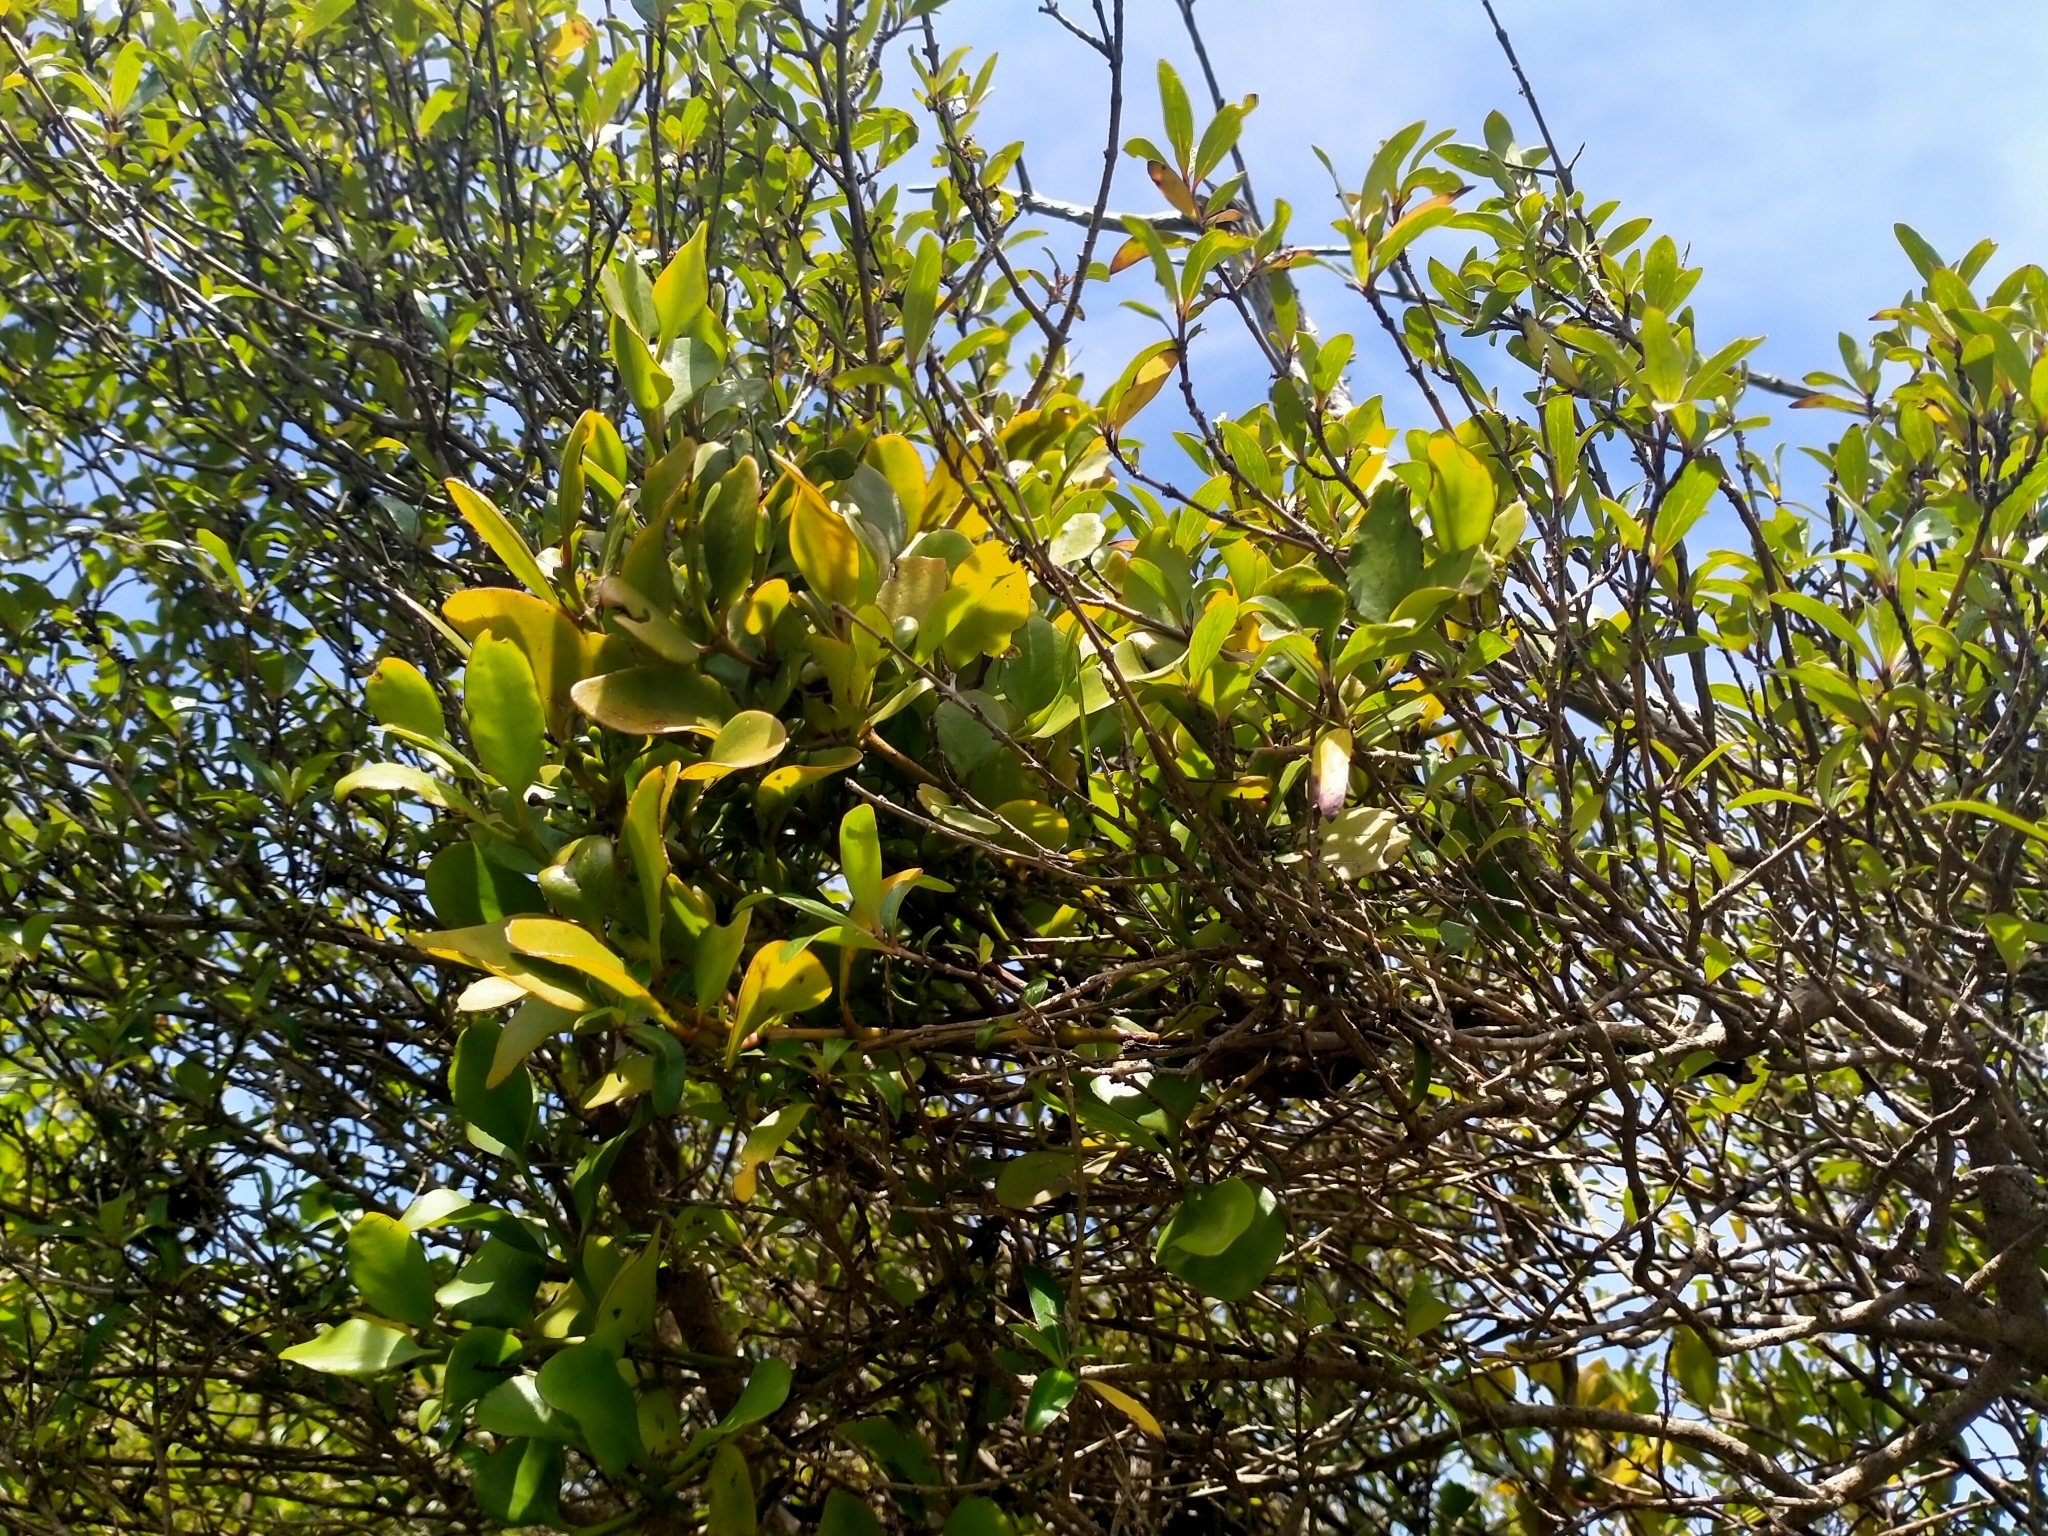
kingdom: Plantae
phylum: Tracheophyta
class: Magnoliopsida
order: Santalales
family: Loranthaceae
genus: Ileostylus
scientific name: Ileostylus micranthus
